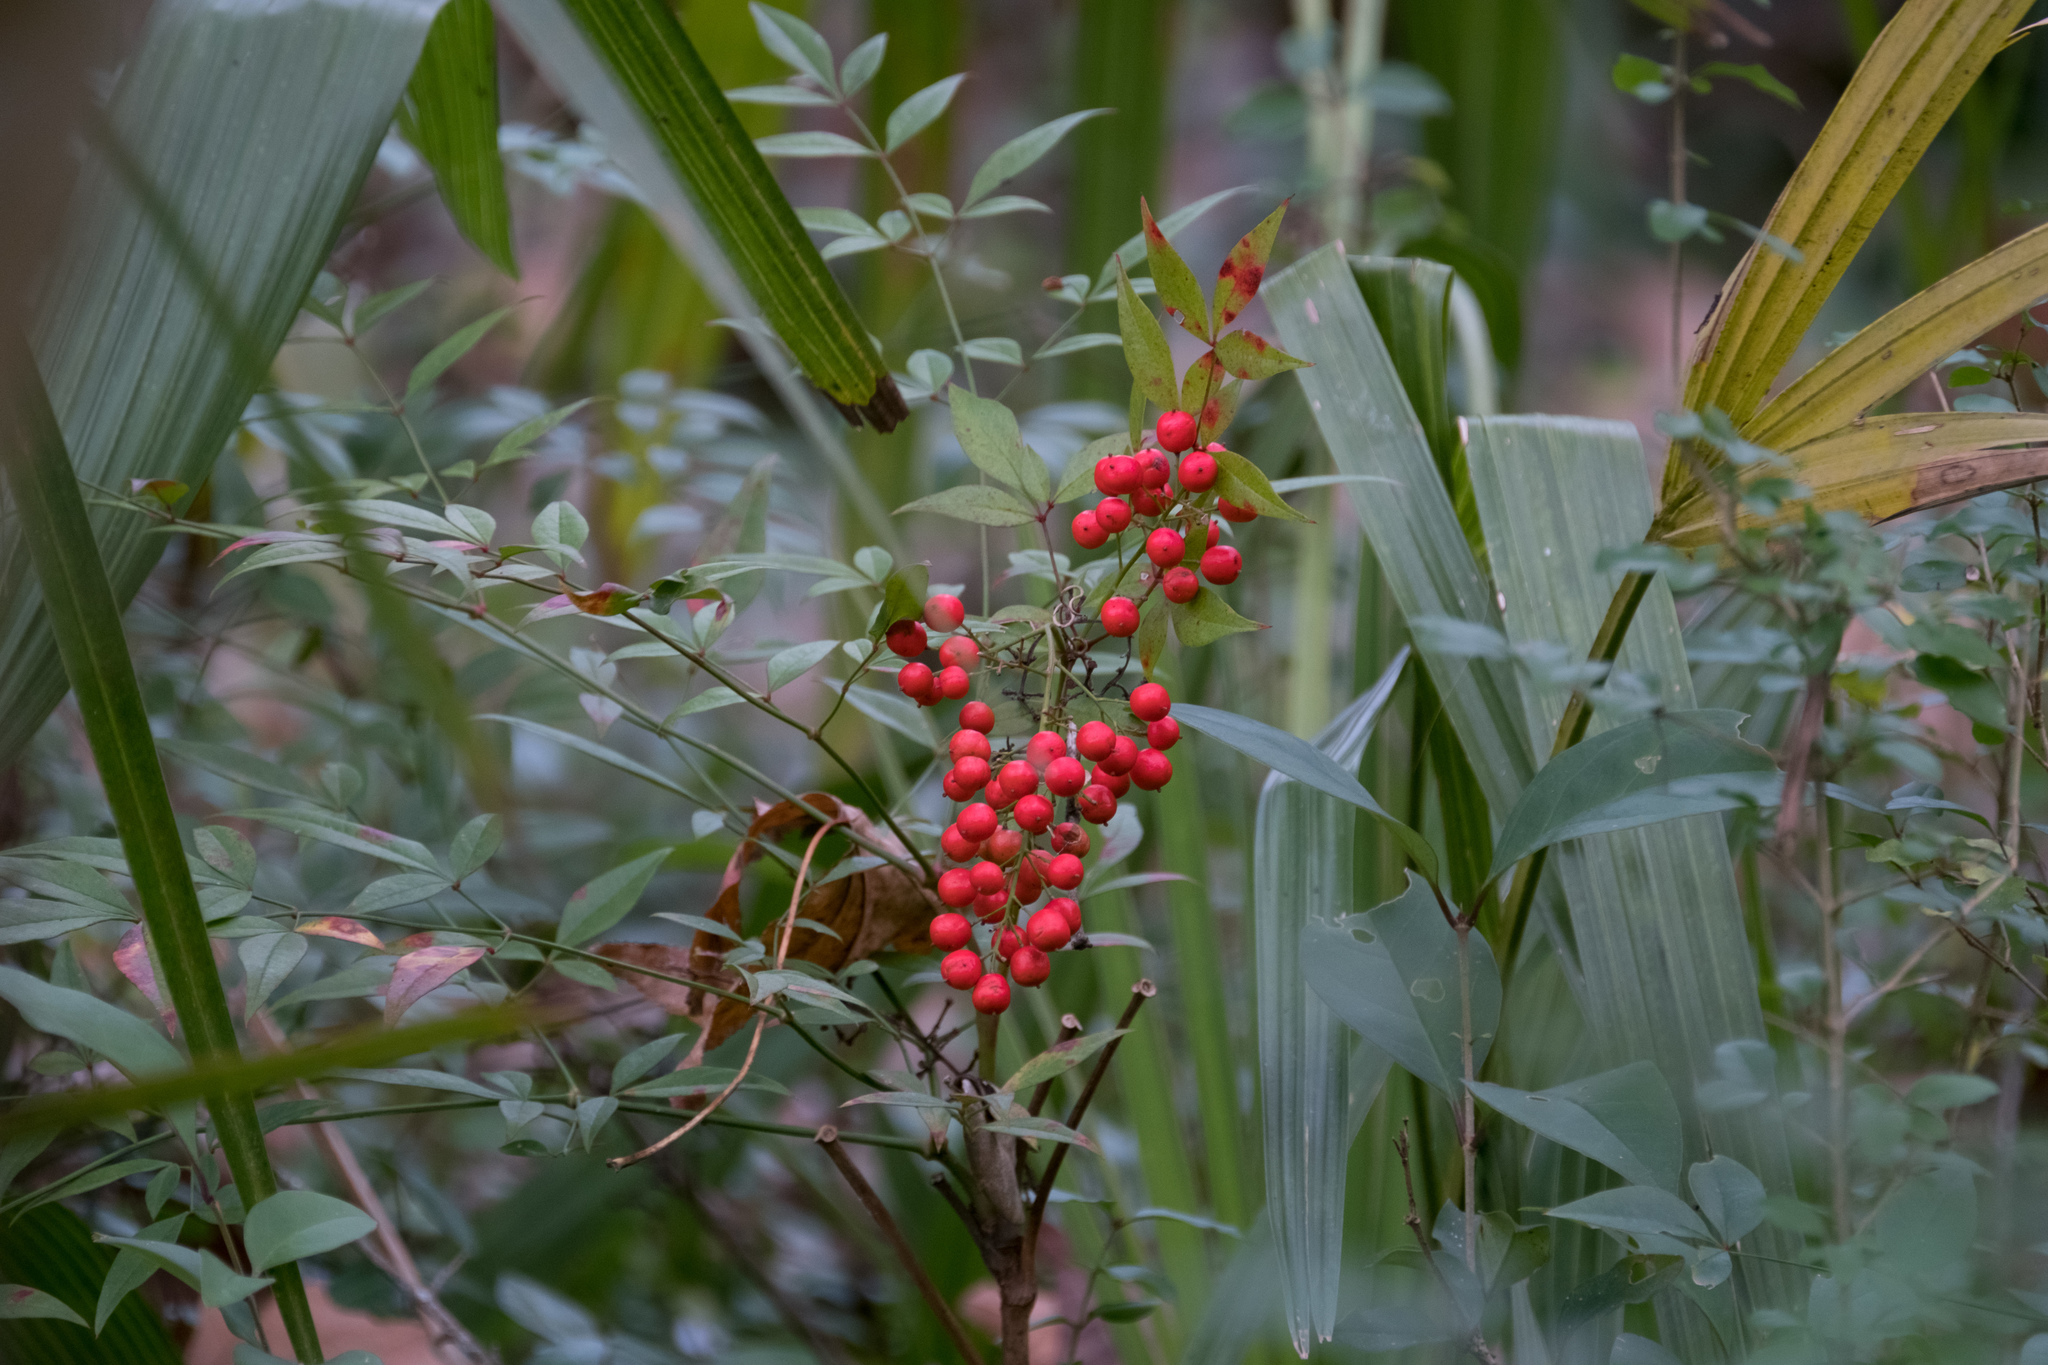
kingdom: Plantae
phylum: Tracheophyta
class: Magnoliopsida
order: Ranunculales
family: Berberidaceae
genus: Nandina
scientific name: Nandina domestica
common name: Sacred bamboo
